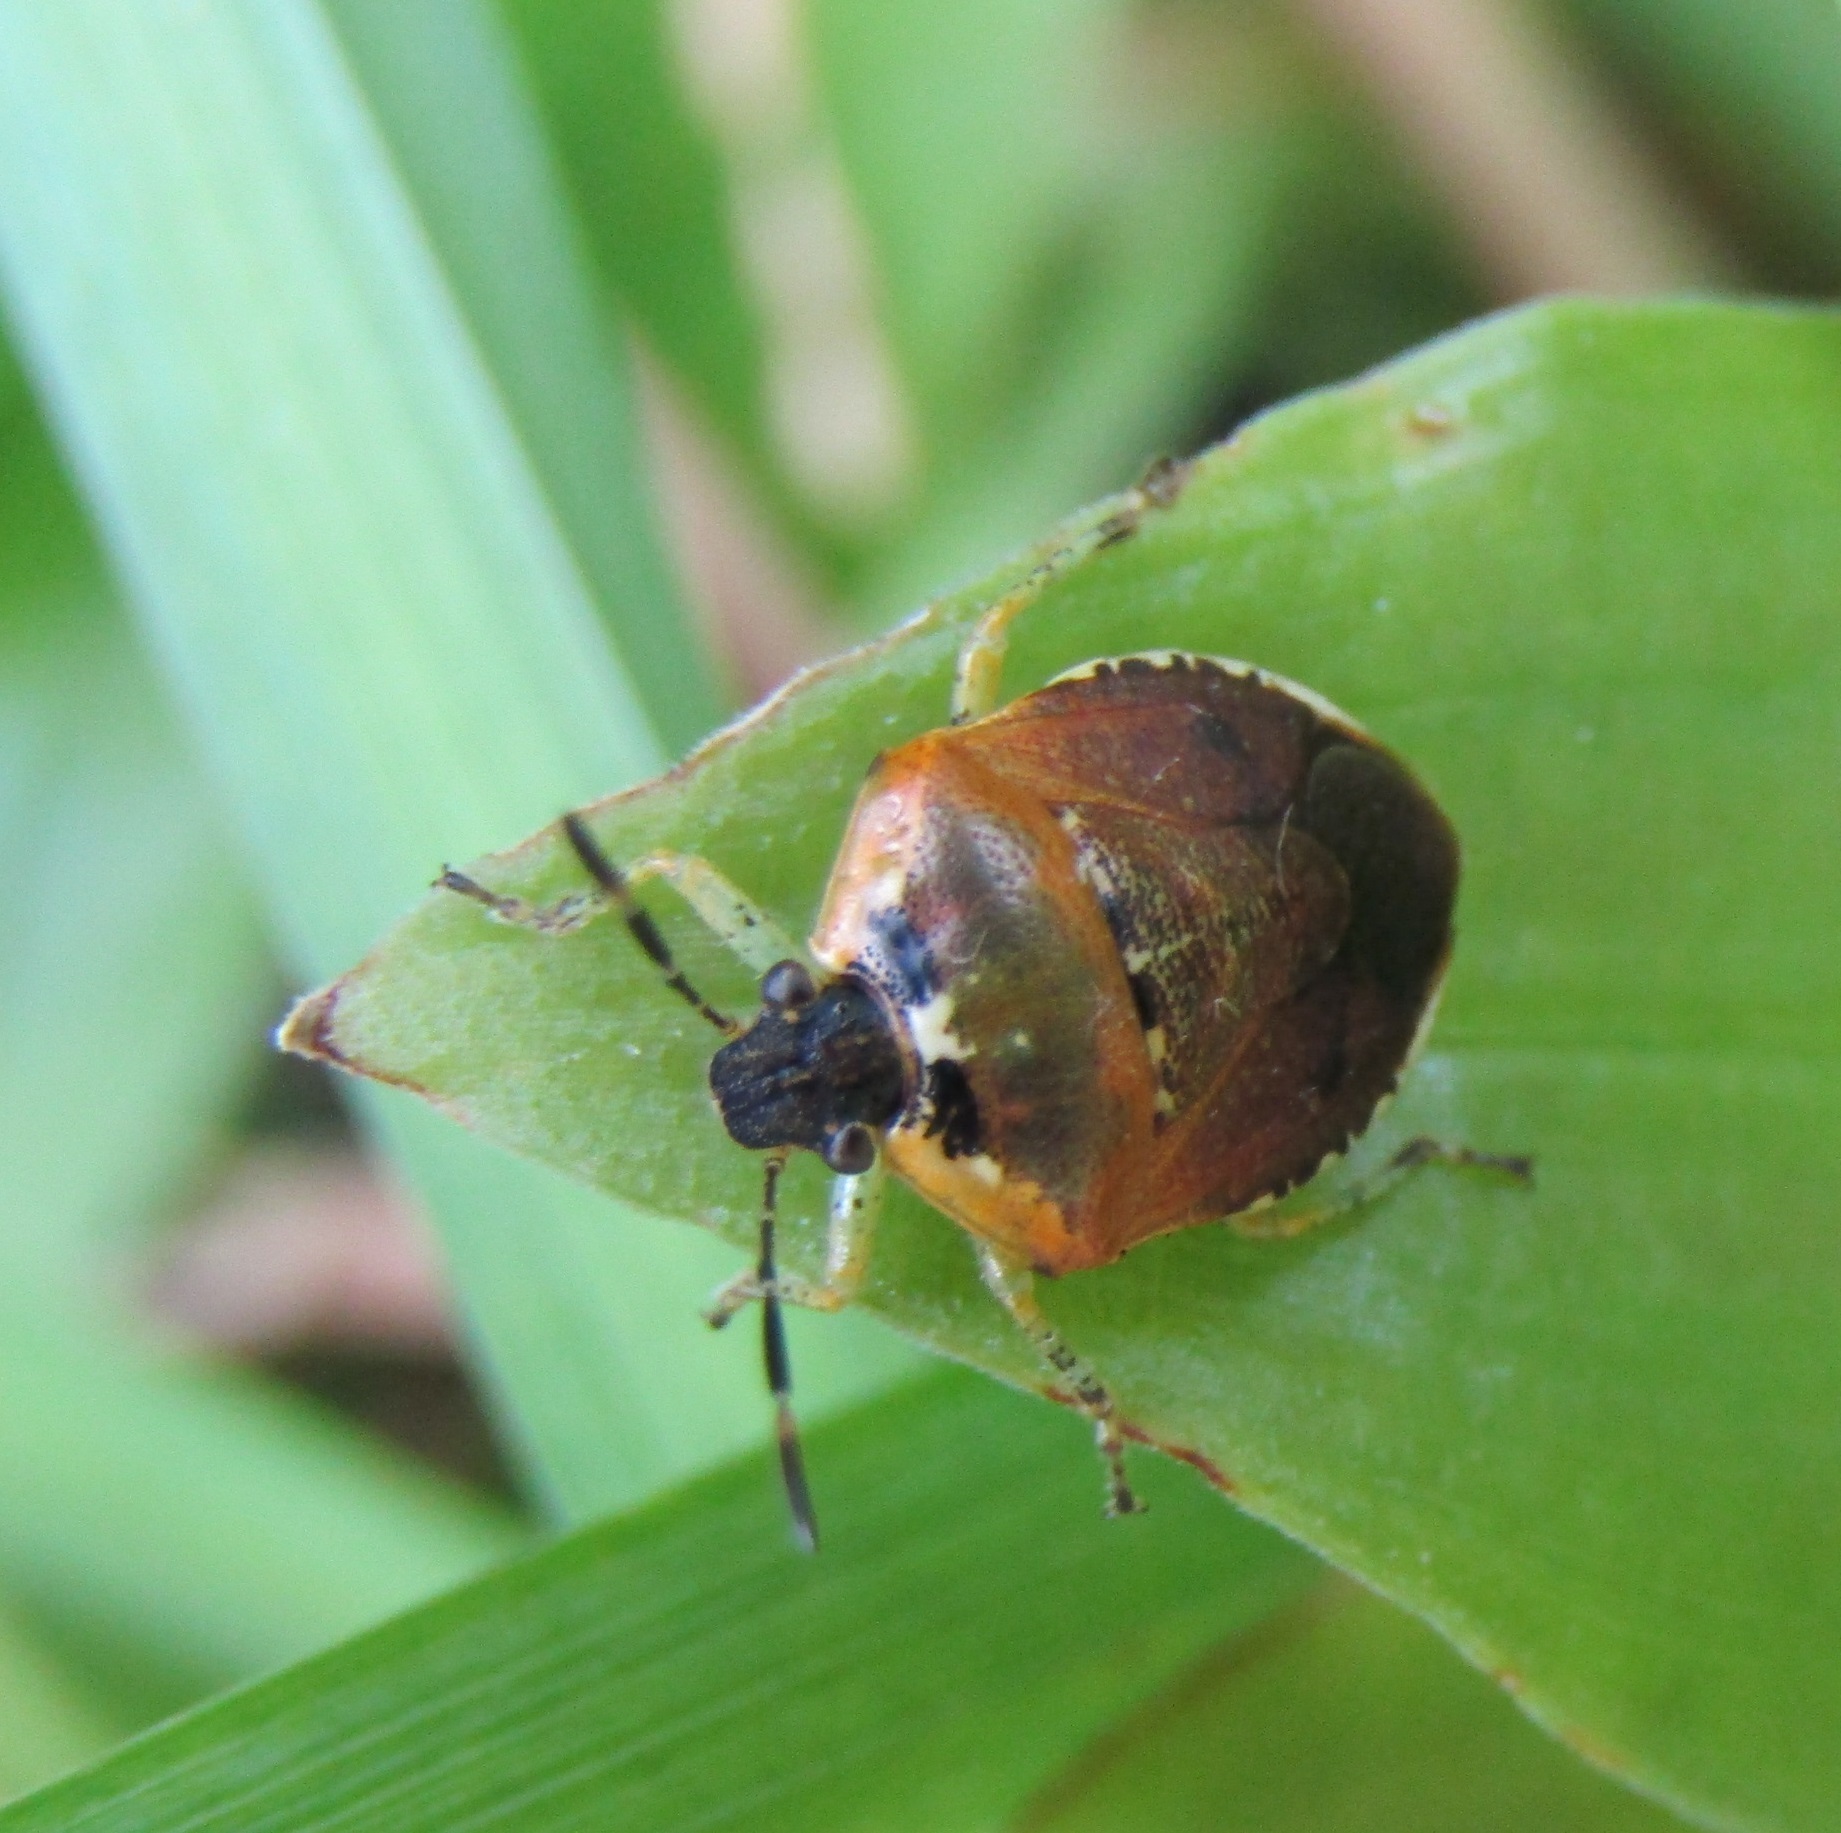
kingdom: Animalia
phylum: Arthropoda
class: Insecta
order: Hemiptera
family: Pentatomidae
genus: Monteithiella
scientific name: Monteithiella
